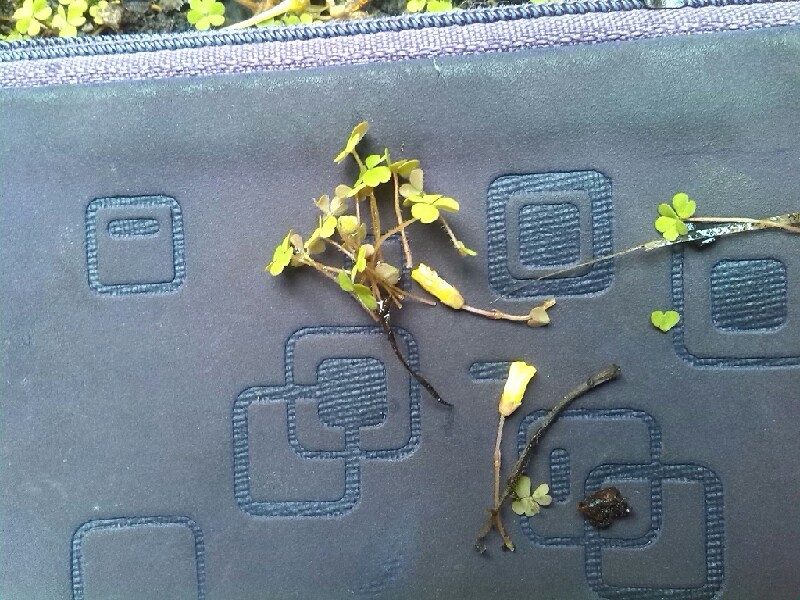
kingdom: Plantae
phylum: Tracheophyta
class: Magnoliopsida
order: Oxalidales
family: Oxalidaceae
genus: Oxalis
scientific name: Oxalis
